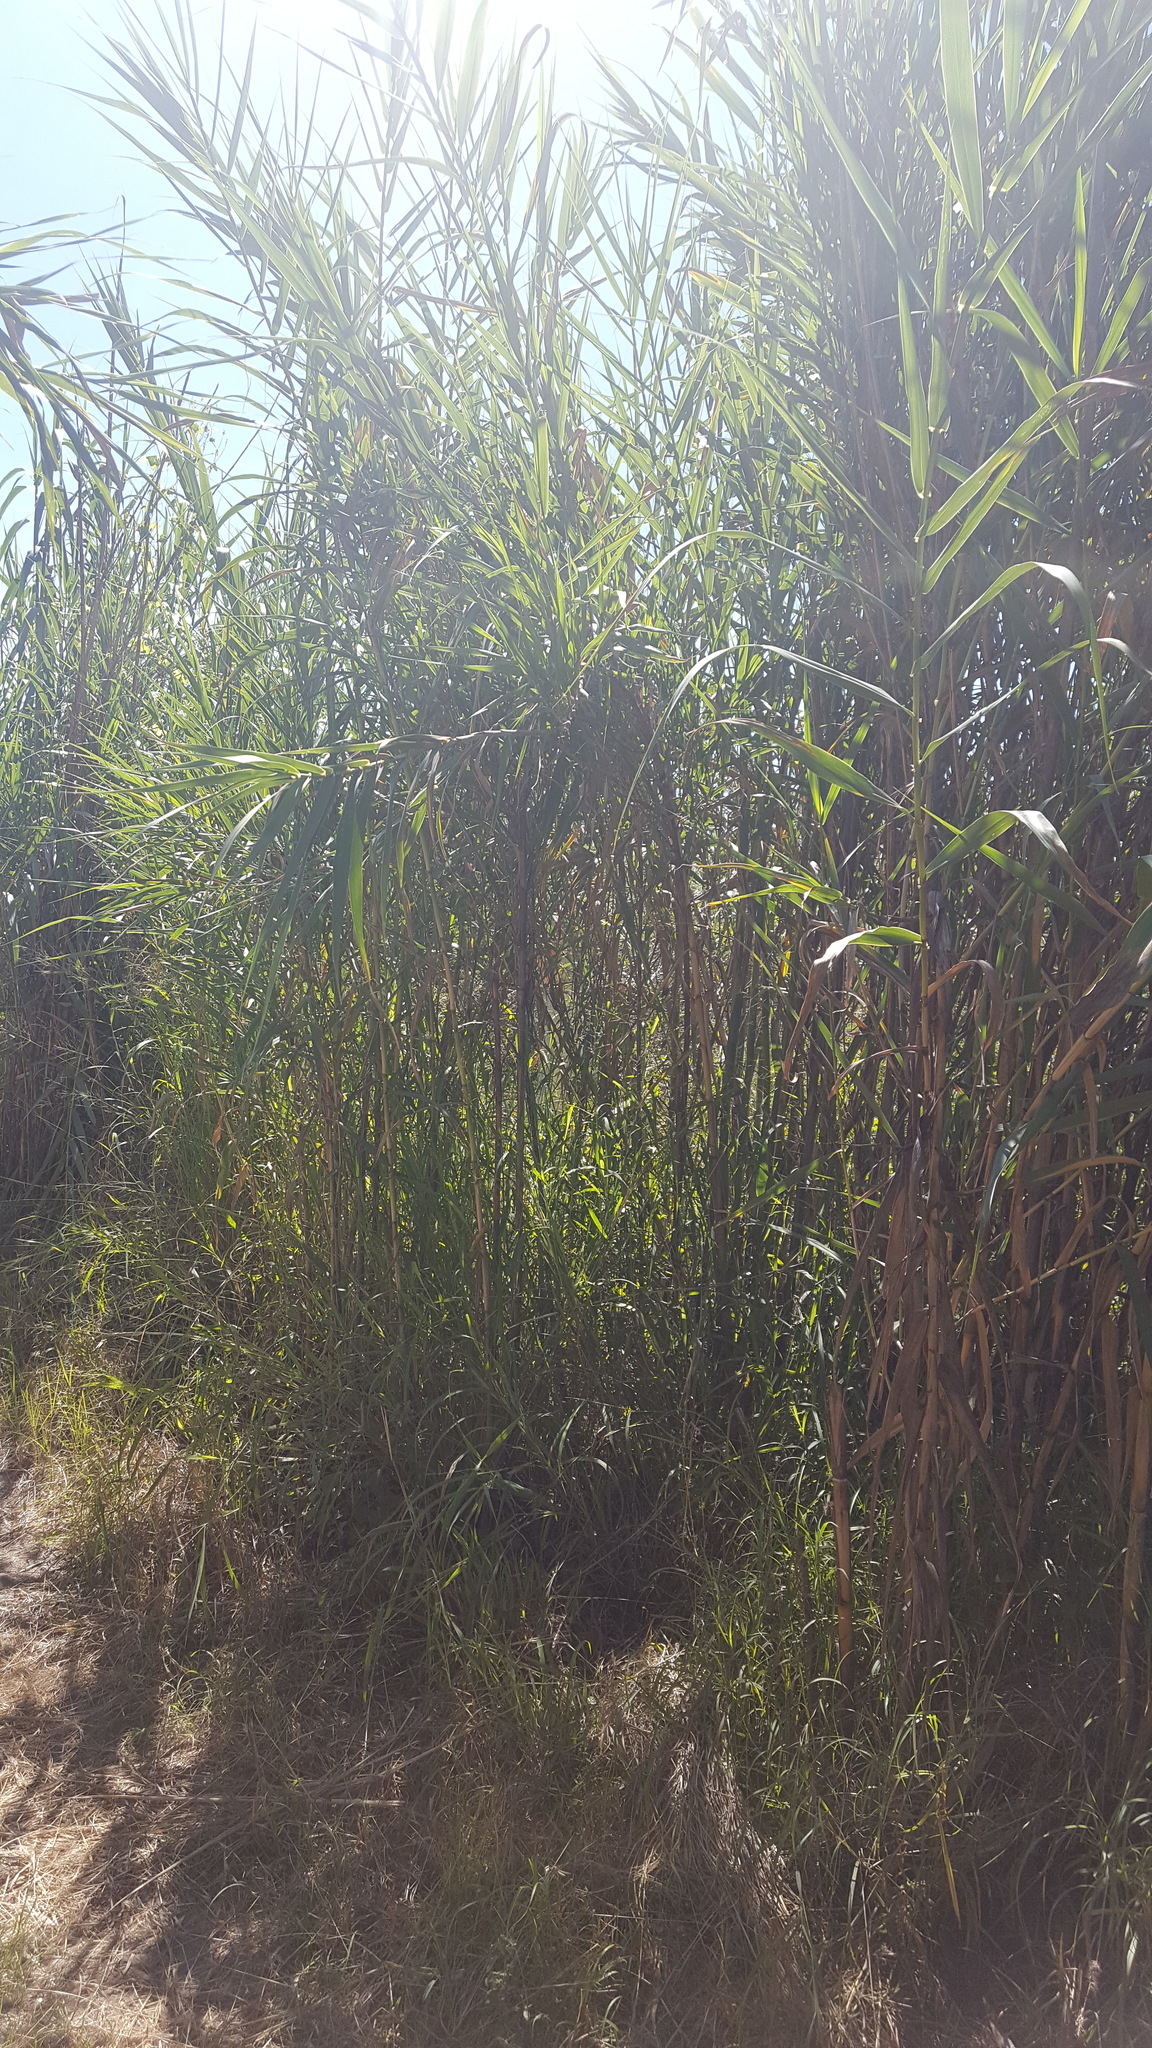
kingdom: Plantae
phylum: Tracheophyta
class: Liliopsida
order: Poales
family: Poaceae
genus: Arundo
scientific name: Arundo donax
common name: Giant reed
